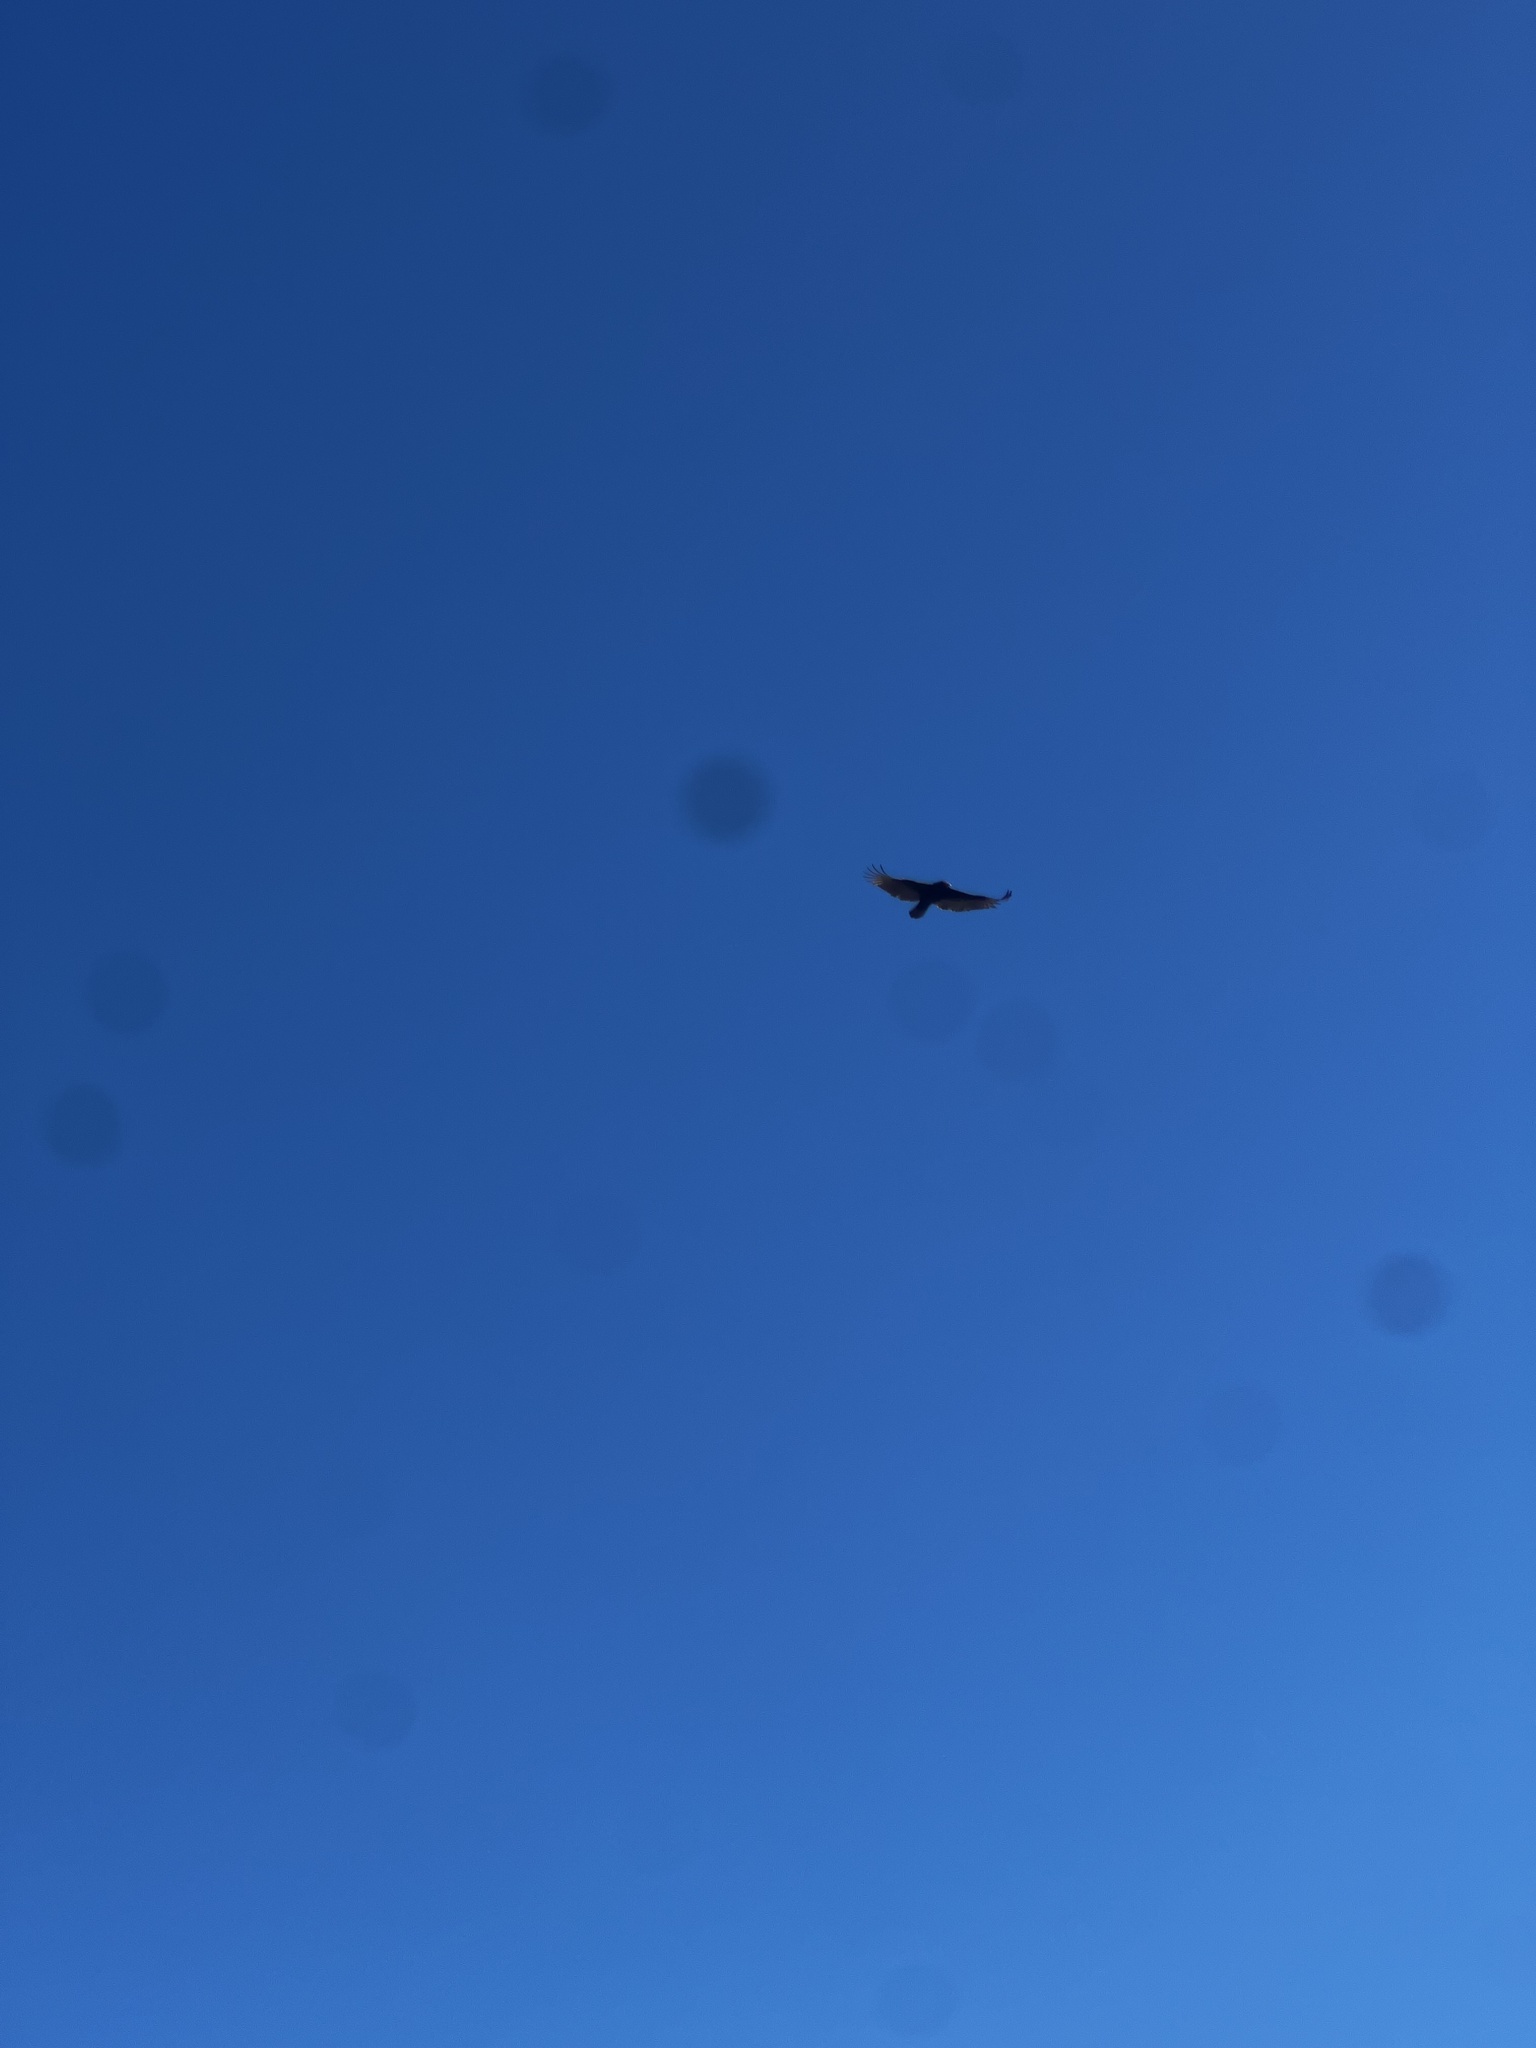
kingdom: Animalia
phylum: Chordata
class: Aves
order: Accipitriformes
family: Cathartidae
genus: Cathartes
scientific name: Cathartes aura
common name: Turkey vulture
